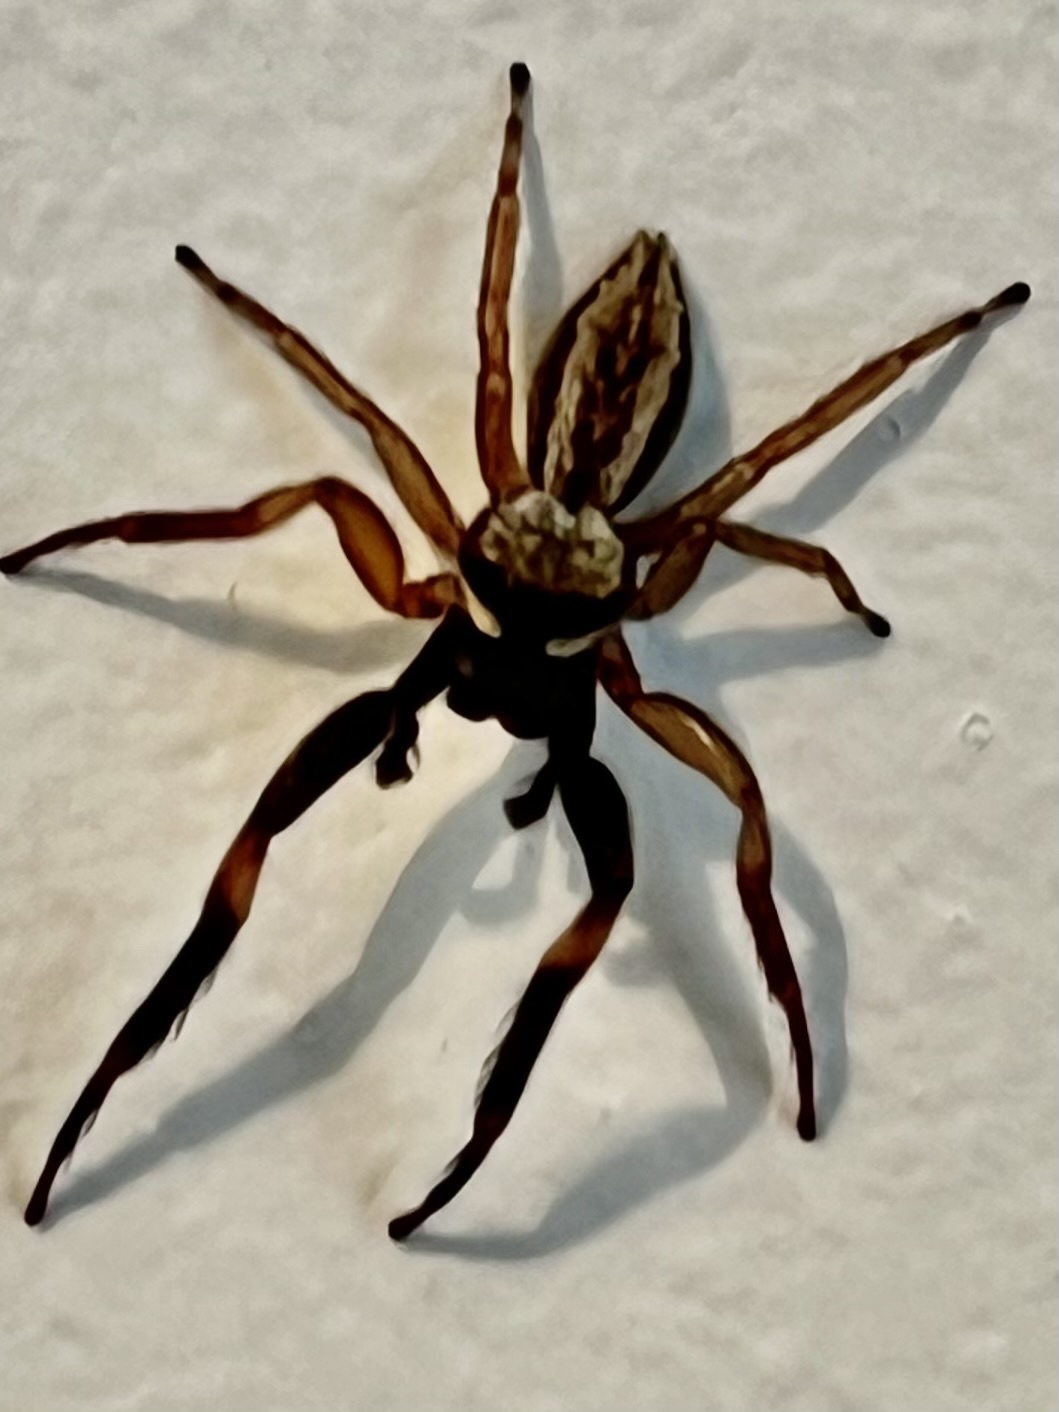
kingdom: Animalia
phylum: Arthropoda
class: Arachnida
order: Araneae
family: Salticidae
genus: Trite
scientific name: Trite auricoma
